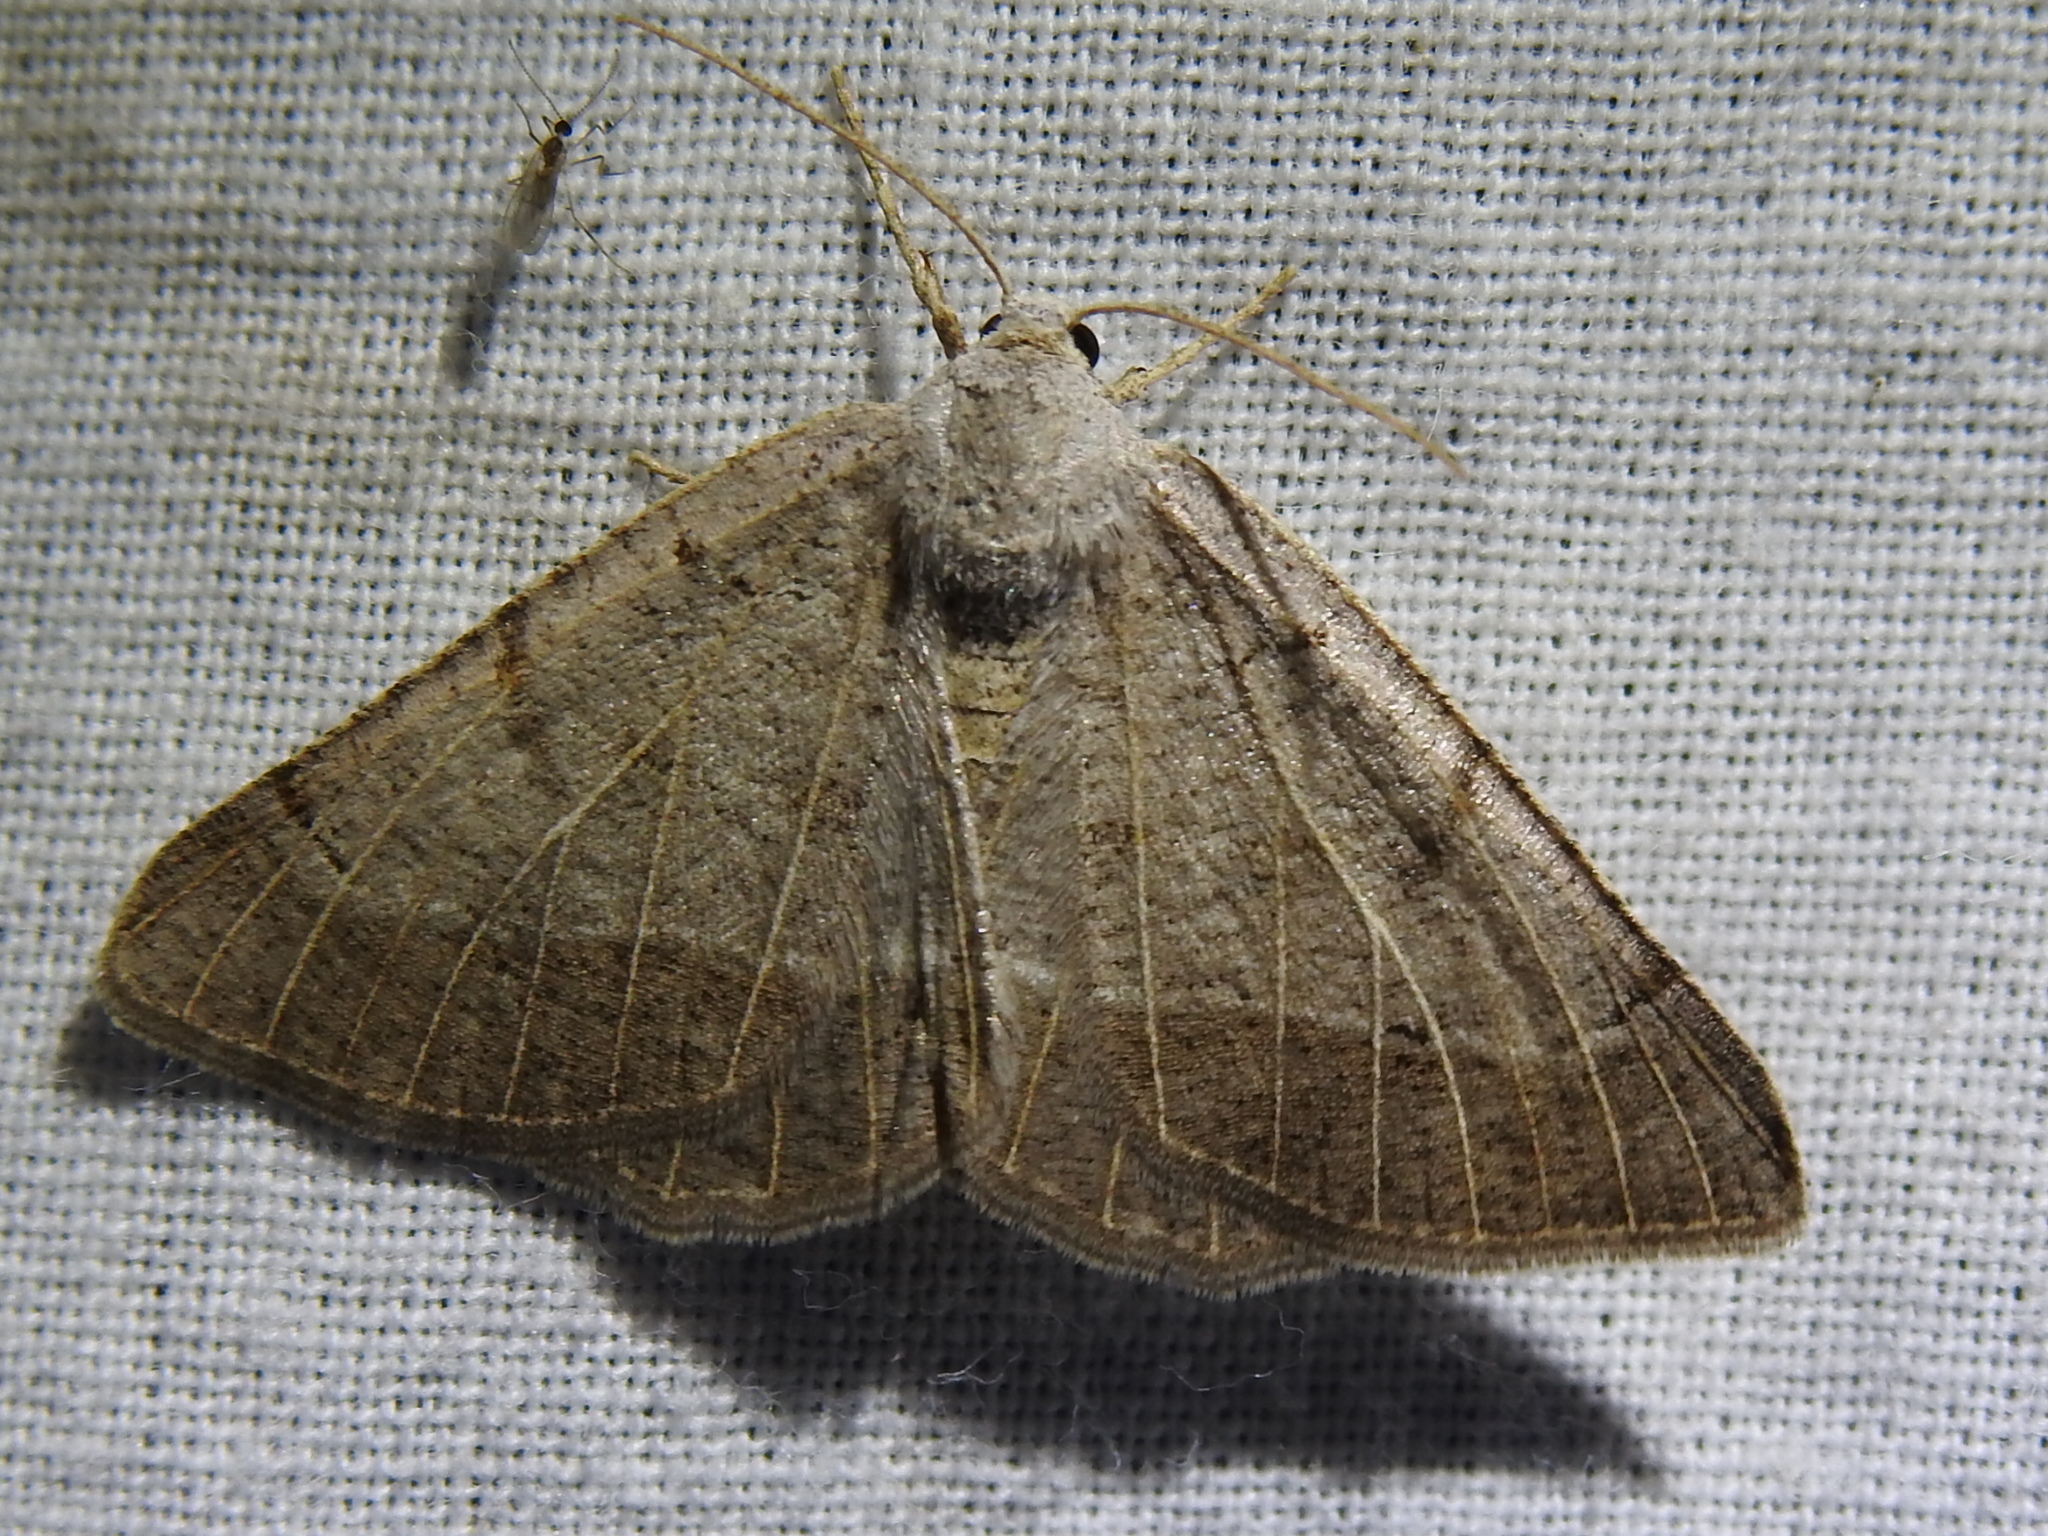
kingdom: Animalia
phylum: Arthropoda
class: Insecta
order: Lepidoptera
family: Geometridae
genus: Isturgia
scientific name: Isturgia dislocaria
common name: Pale-viened enconista
